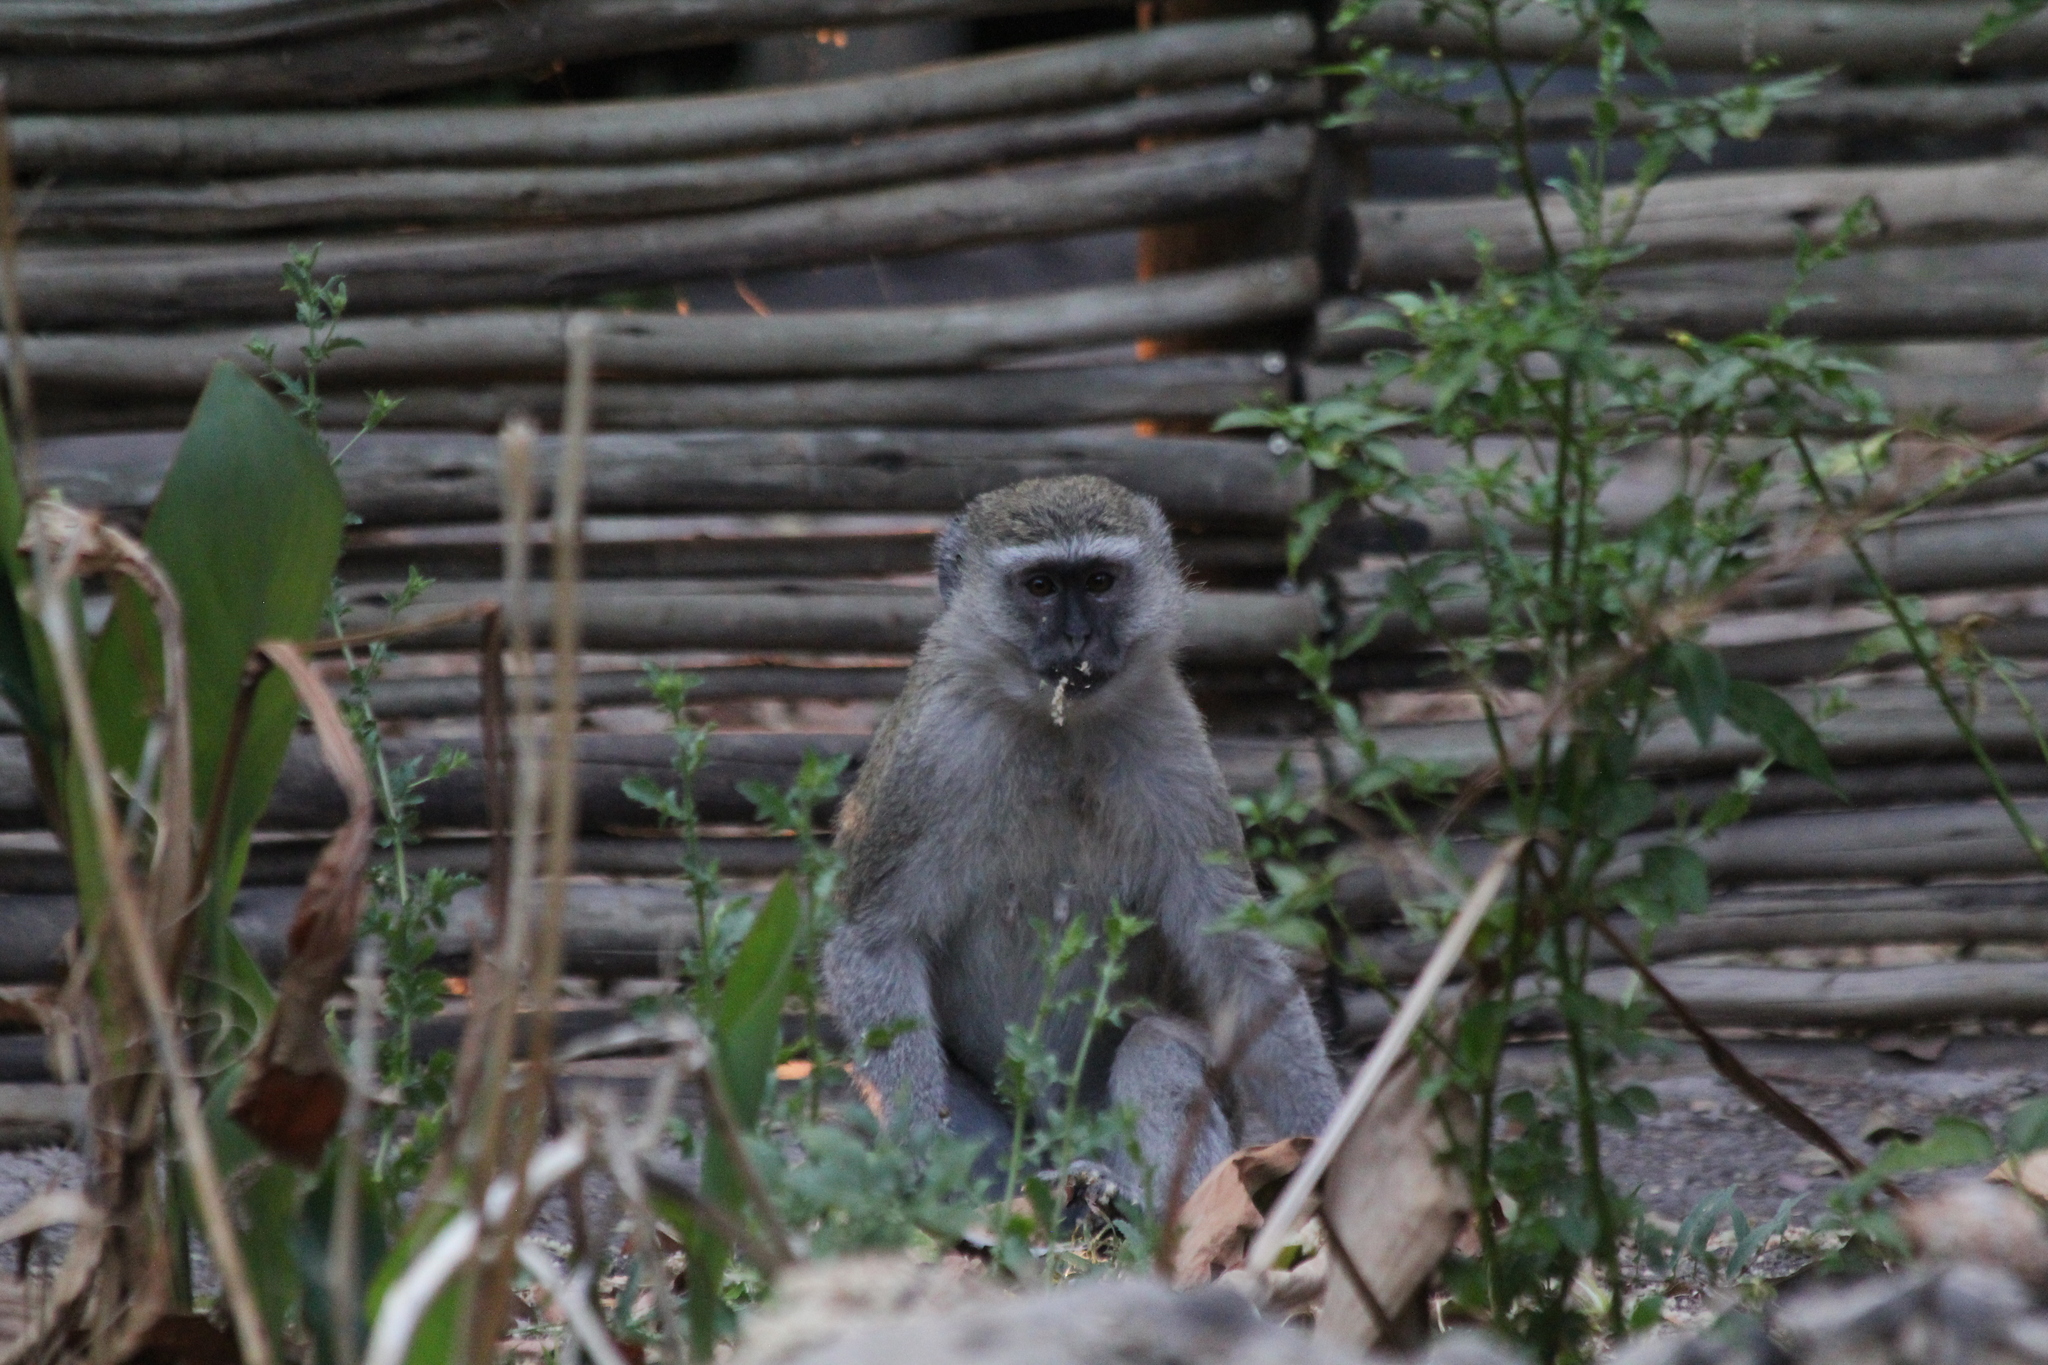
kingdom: Animalia
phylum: Chordata
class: Mammalia
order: Primates
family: Cercopithecidae
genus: Chlorocebus
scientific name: Chlorocebus pygerythrus
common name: Vervet monkey
